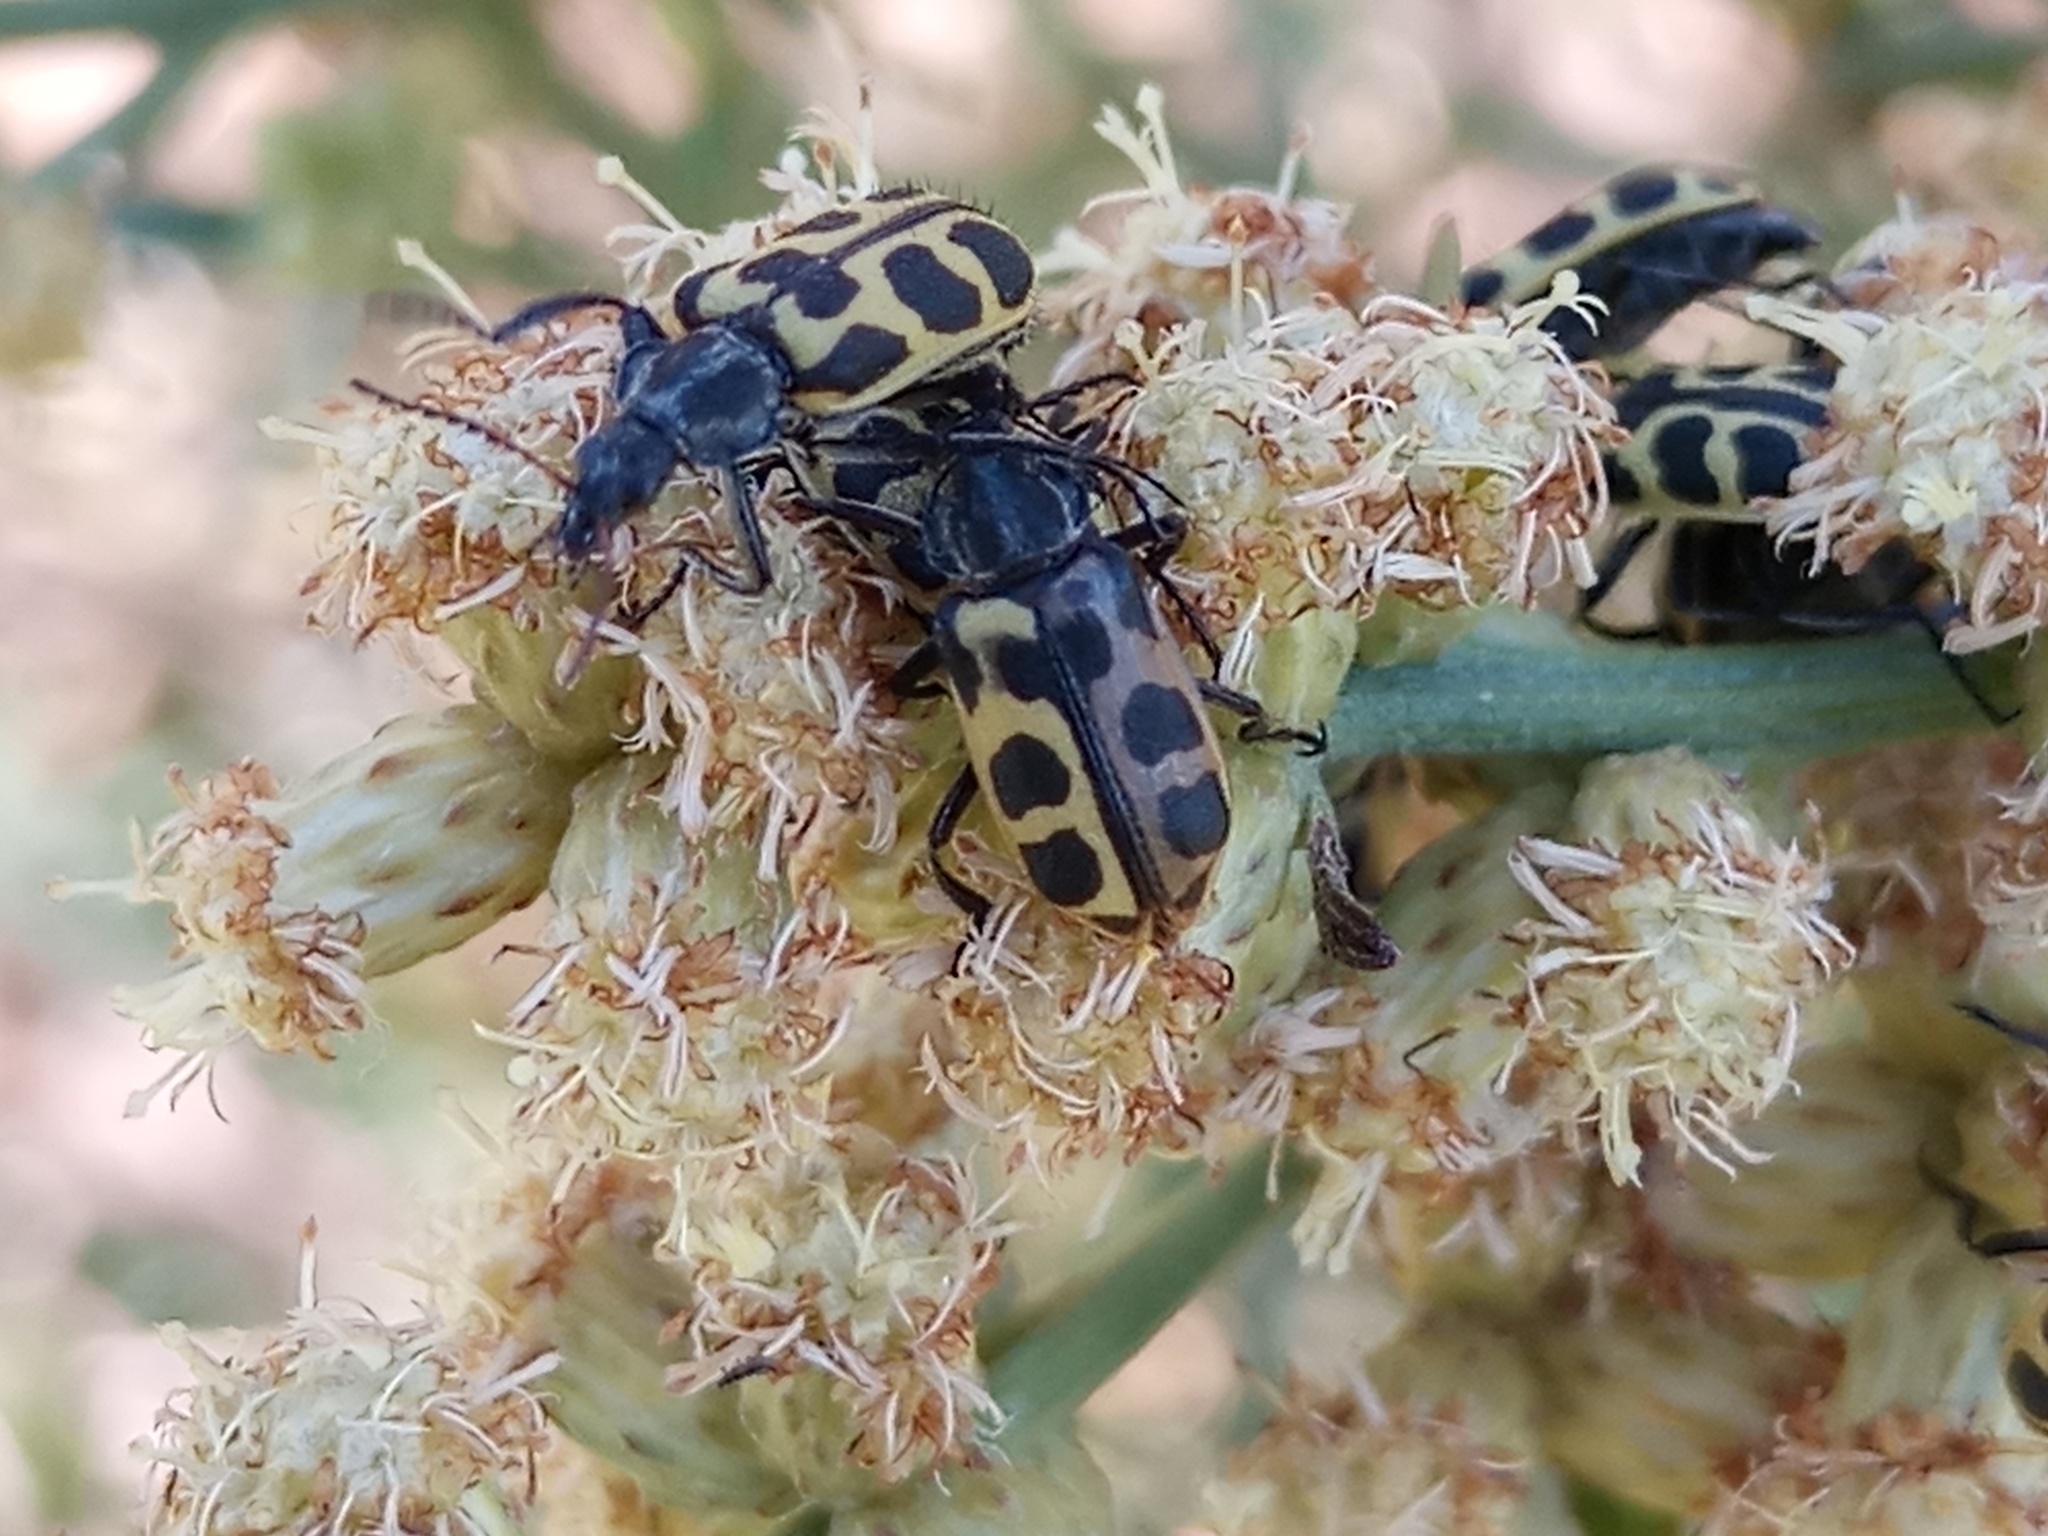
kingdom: Animalia
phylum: Arthropoda
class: Insecta
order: Coleoptera
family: Melyridae
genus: Astylus
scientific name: Astylus atromaculatus
